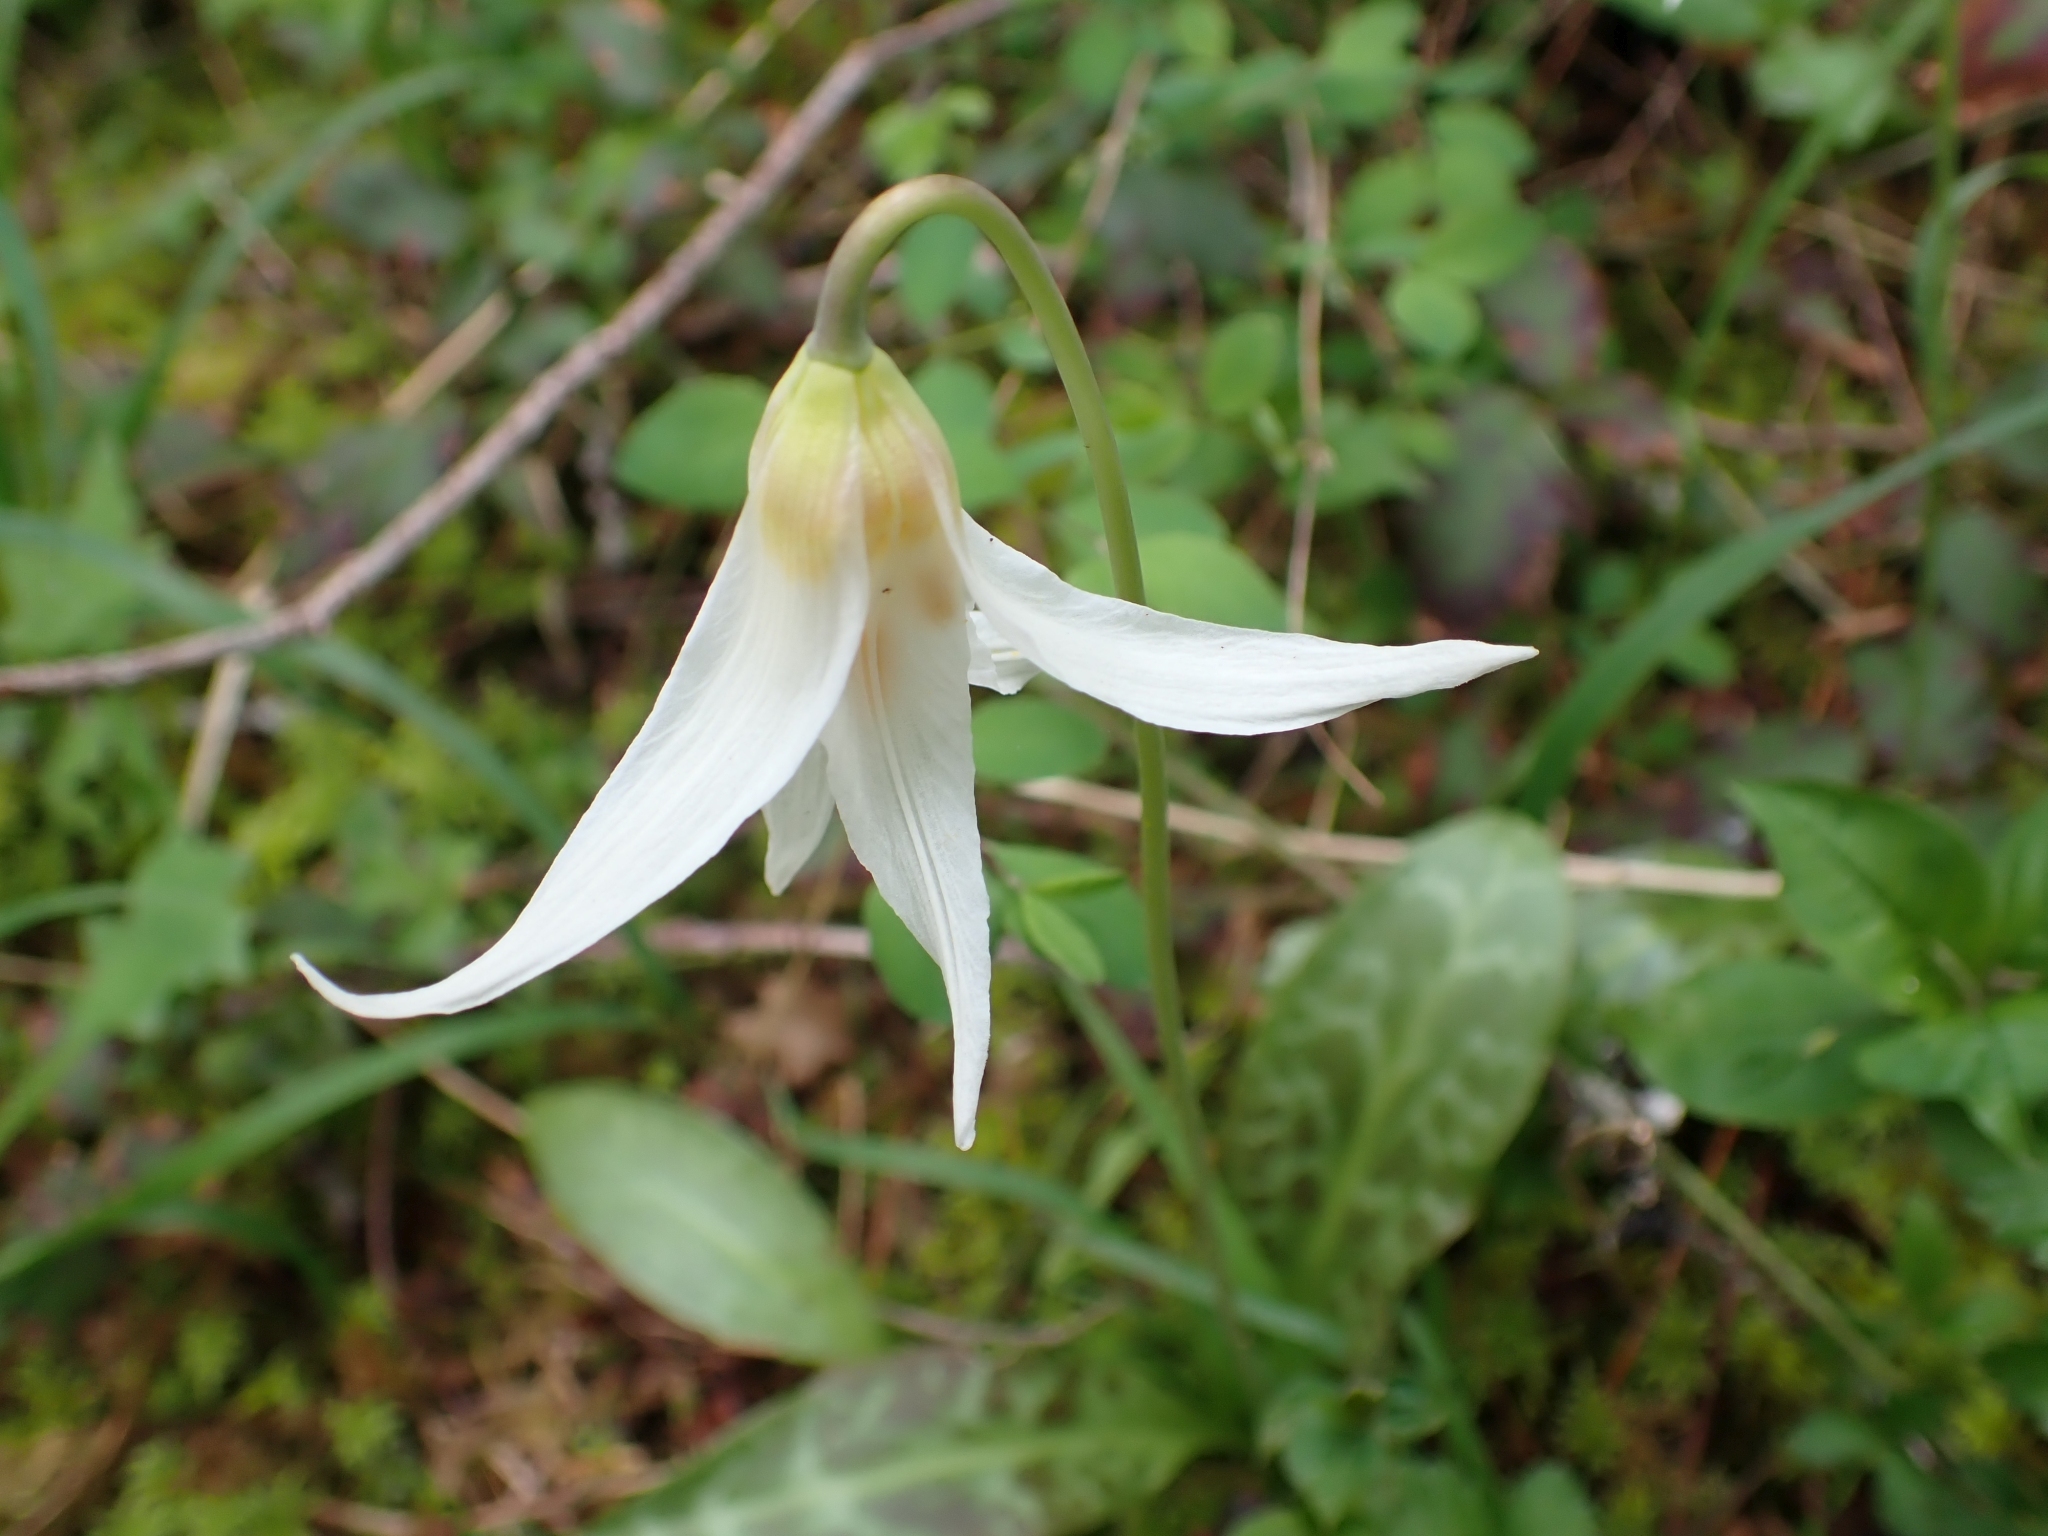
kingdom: Plantae
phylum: Tracheophyta
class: Liliopsida
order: Liliales
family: Liliaceae
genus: Erythronium
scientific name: Erythronium oregonum
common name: Giant adder's-tongue
